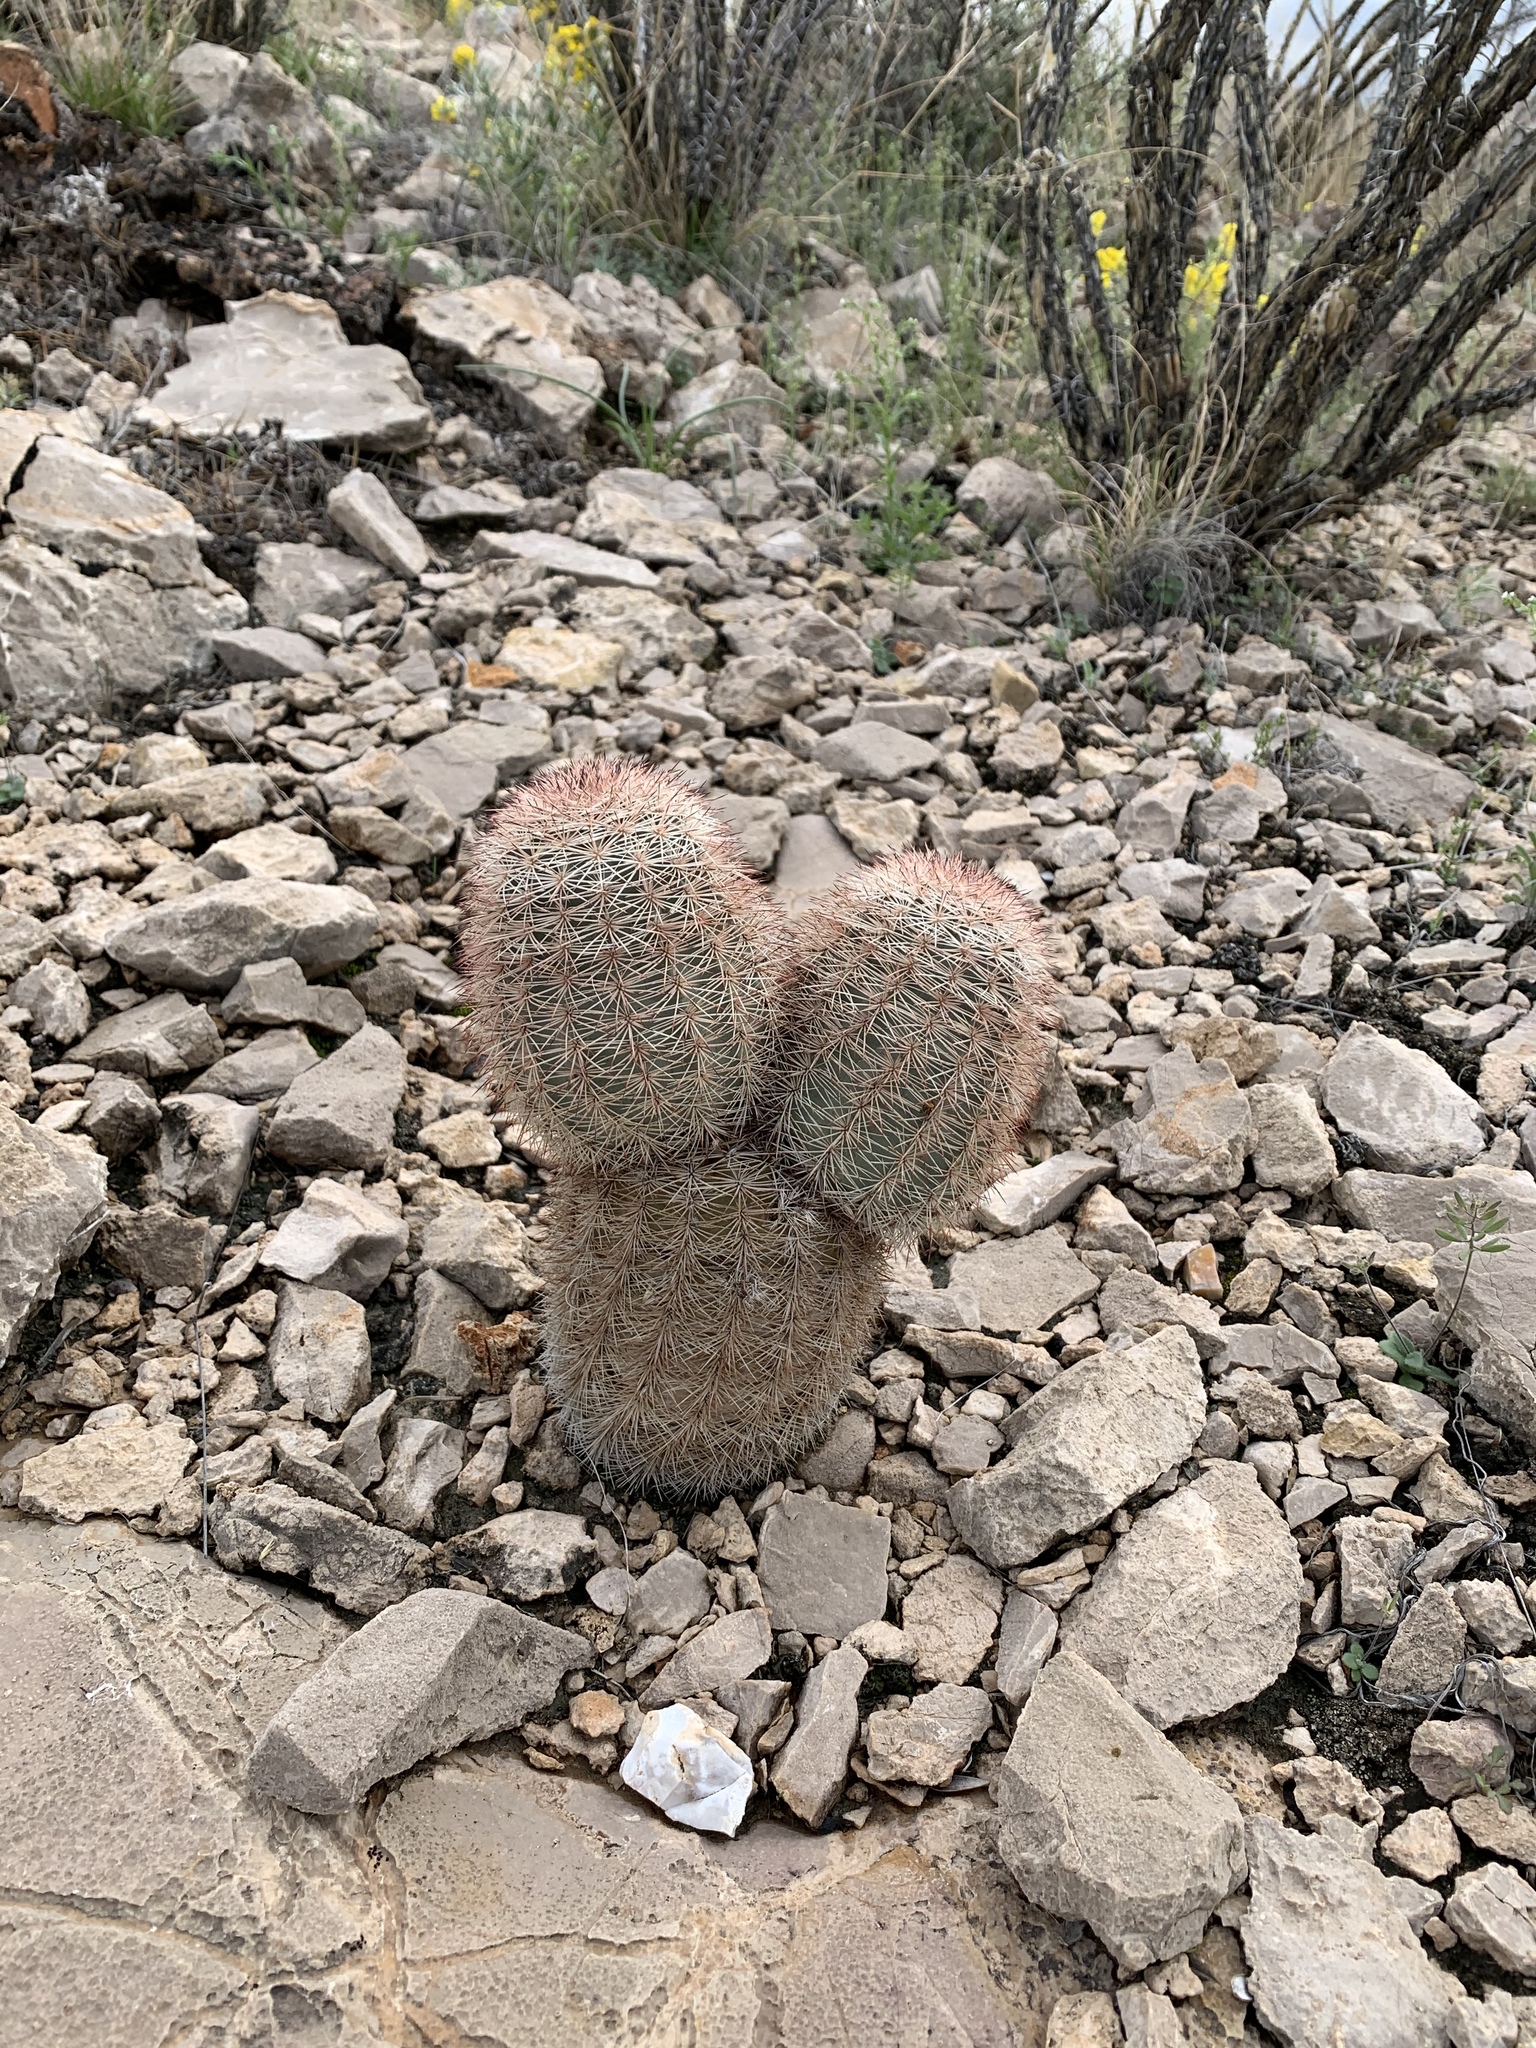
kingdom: Plantae
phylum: Tracheophyta
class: Magnoliopsida
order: Caryophyllales
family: Cactaceae
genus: Echinocereus
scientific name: Echinocereus dasyacanthus
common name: Spiny hedgehog cactus
